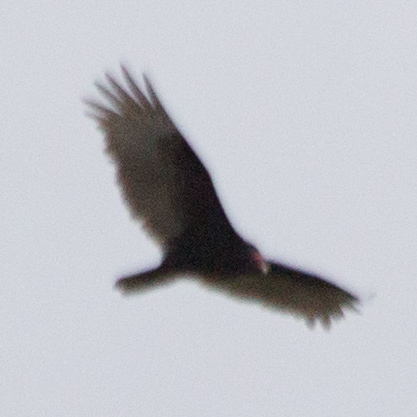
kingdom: Animalia
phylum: Chordata
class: Aves
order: Accipitriformes
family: Cathartidae
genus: Cathartes
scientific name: Cathartes aura
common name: Turkey vulture
